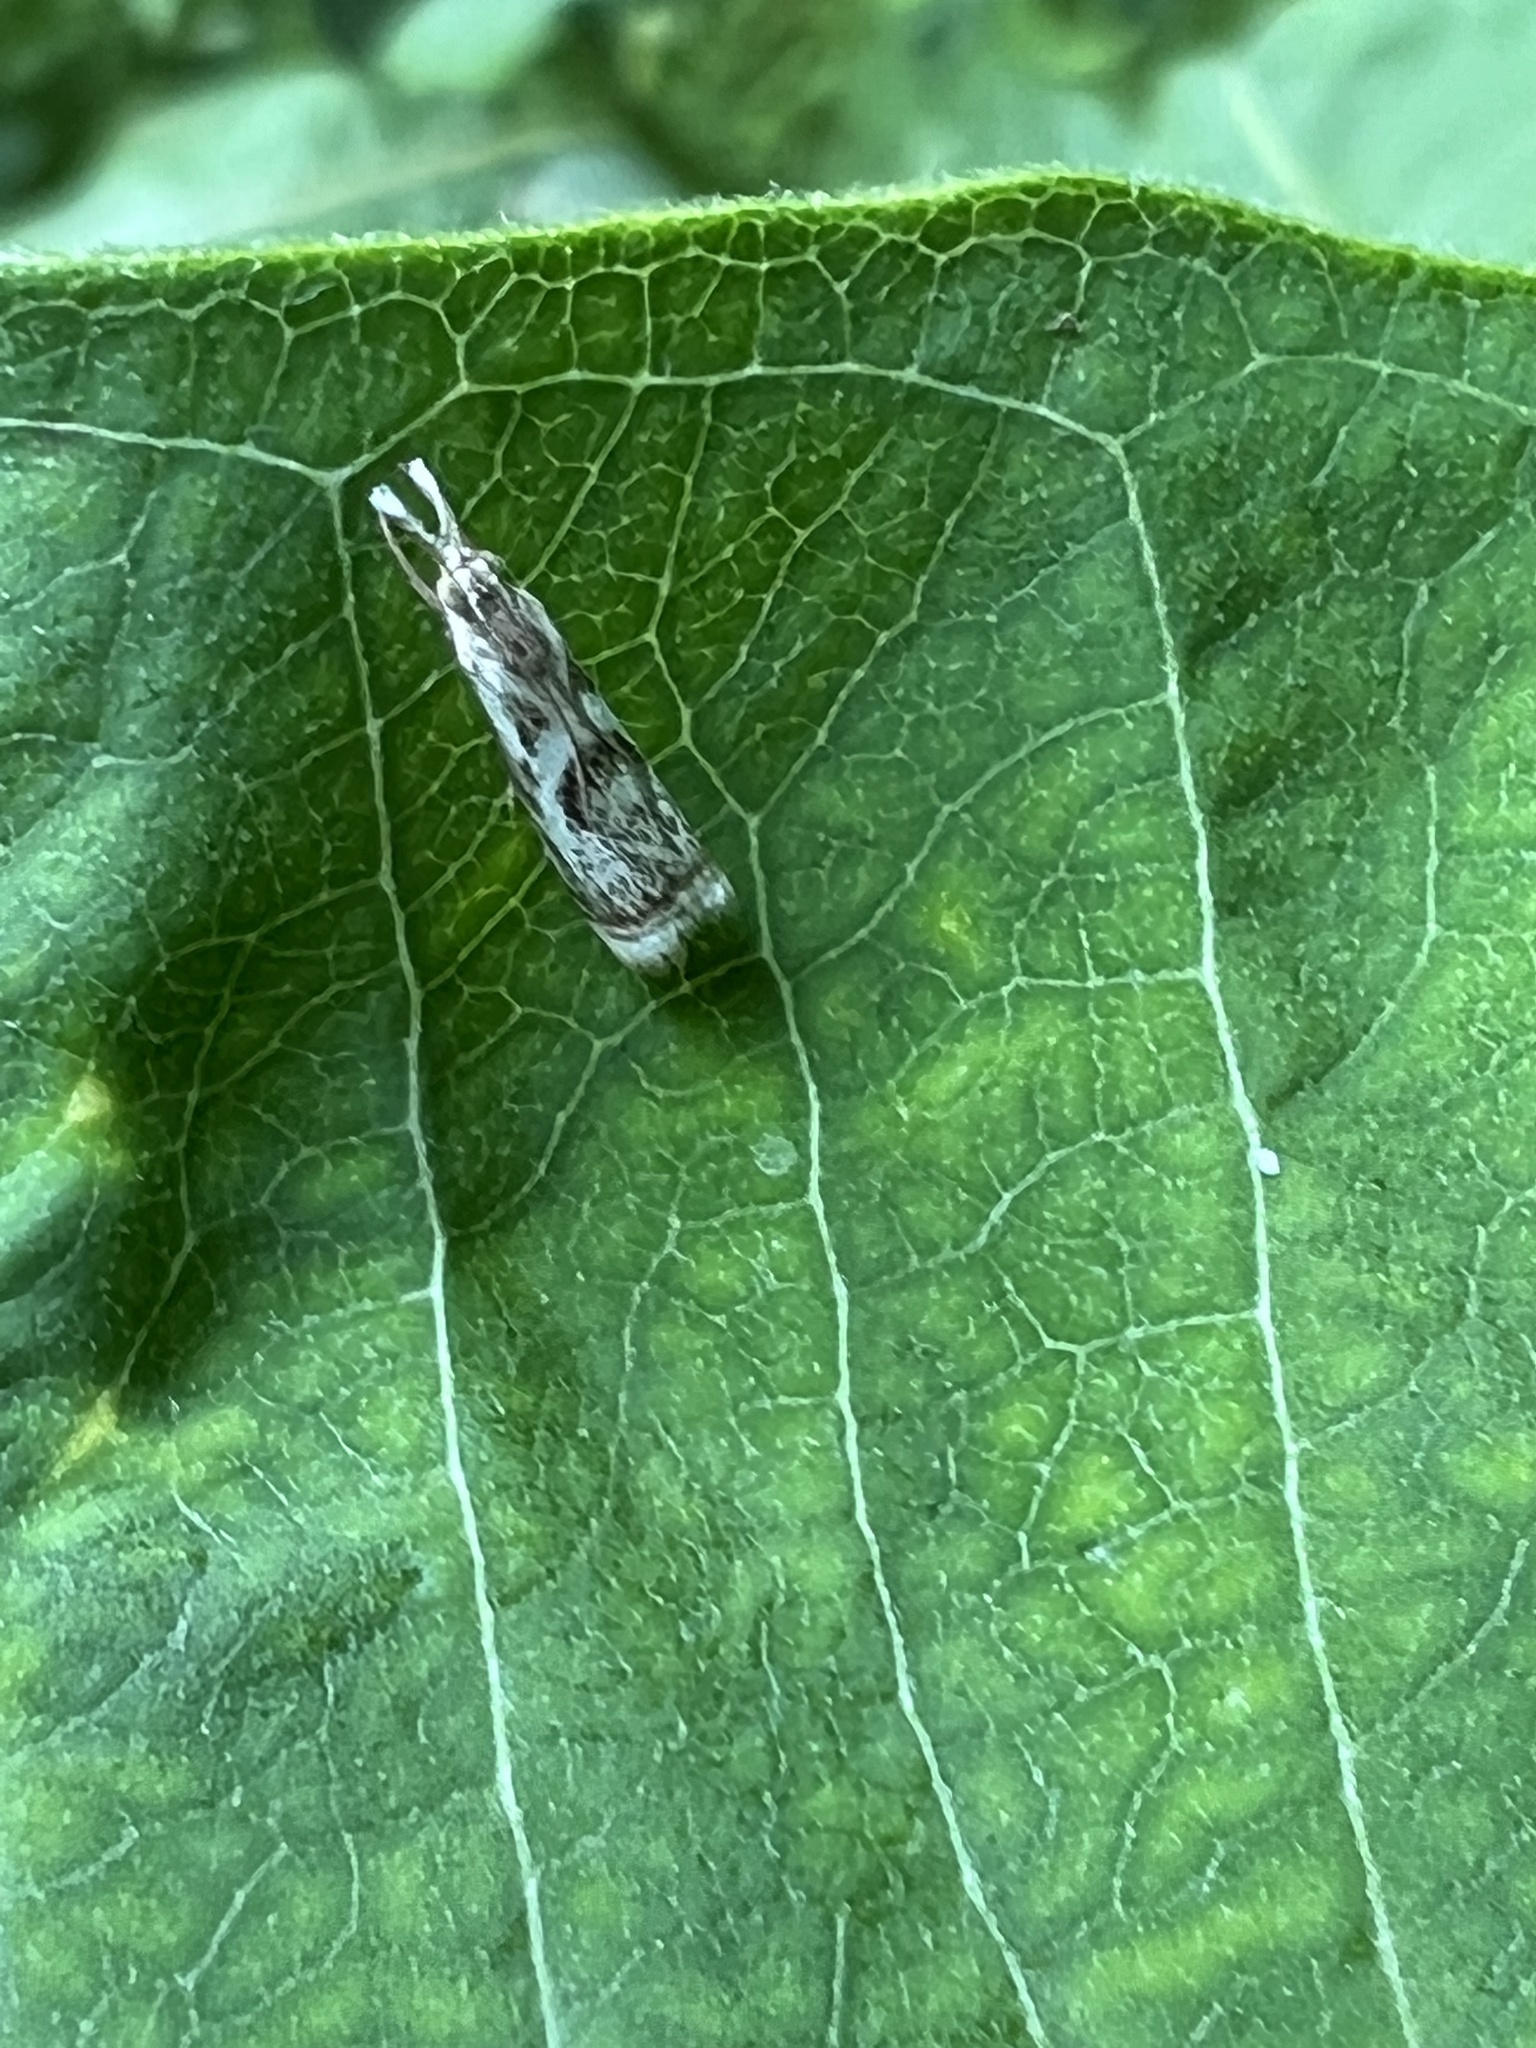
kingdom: Animalia
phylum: Arthropoda
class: Insecta
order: Lepidoptera
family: Crambidae
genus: Microcrambus
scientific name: Microcrambus elegans
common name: Elegant grass-veneer
